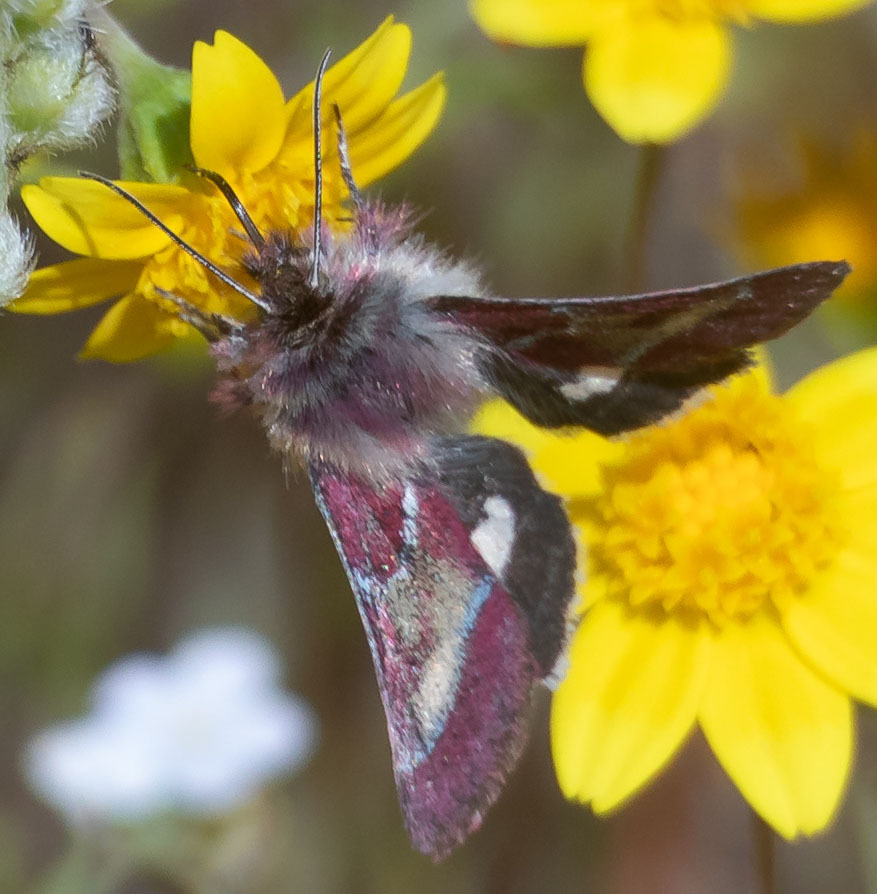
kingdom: Animalia
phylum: Arthropoda
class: Insecta
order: Lepidoptera
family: Noctuidae
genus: Schinia
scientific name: Schinia pulchripennis
